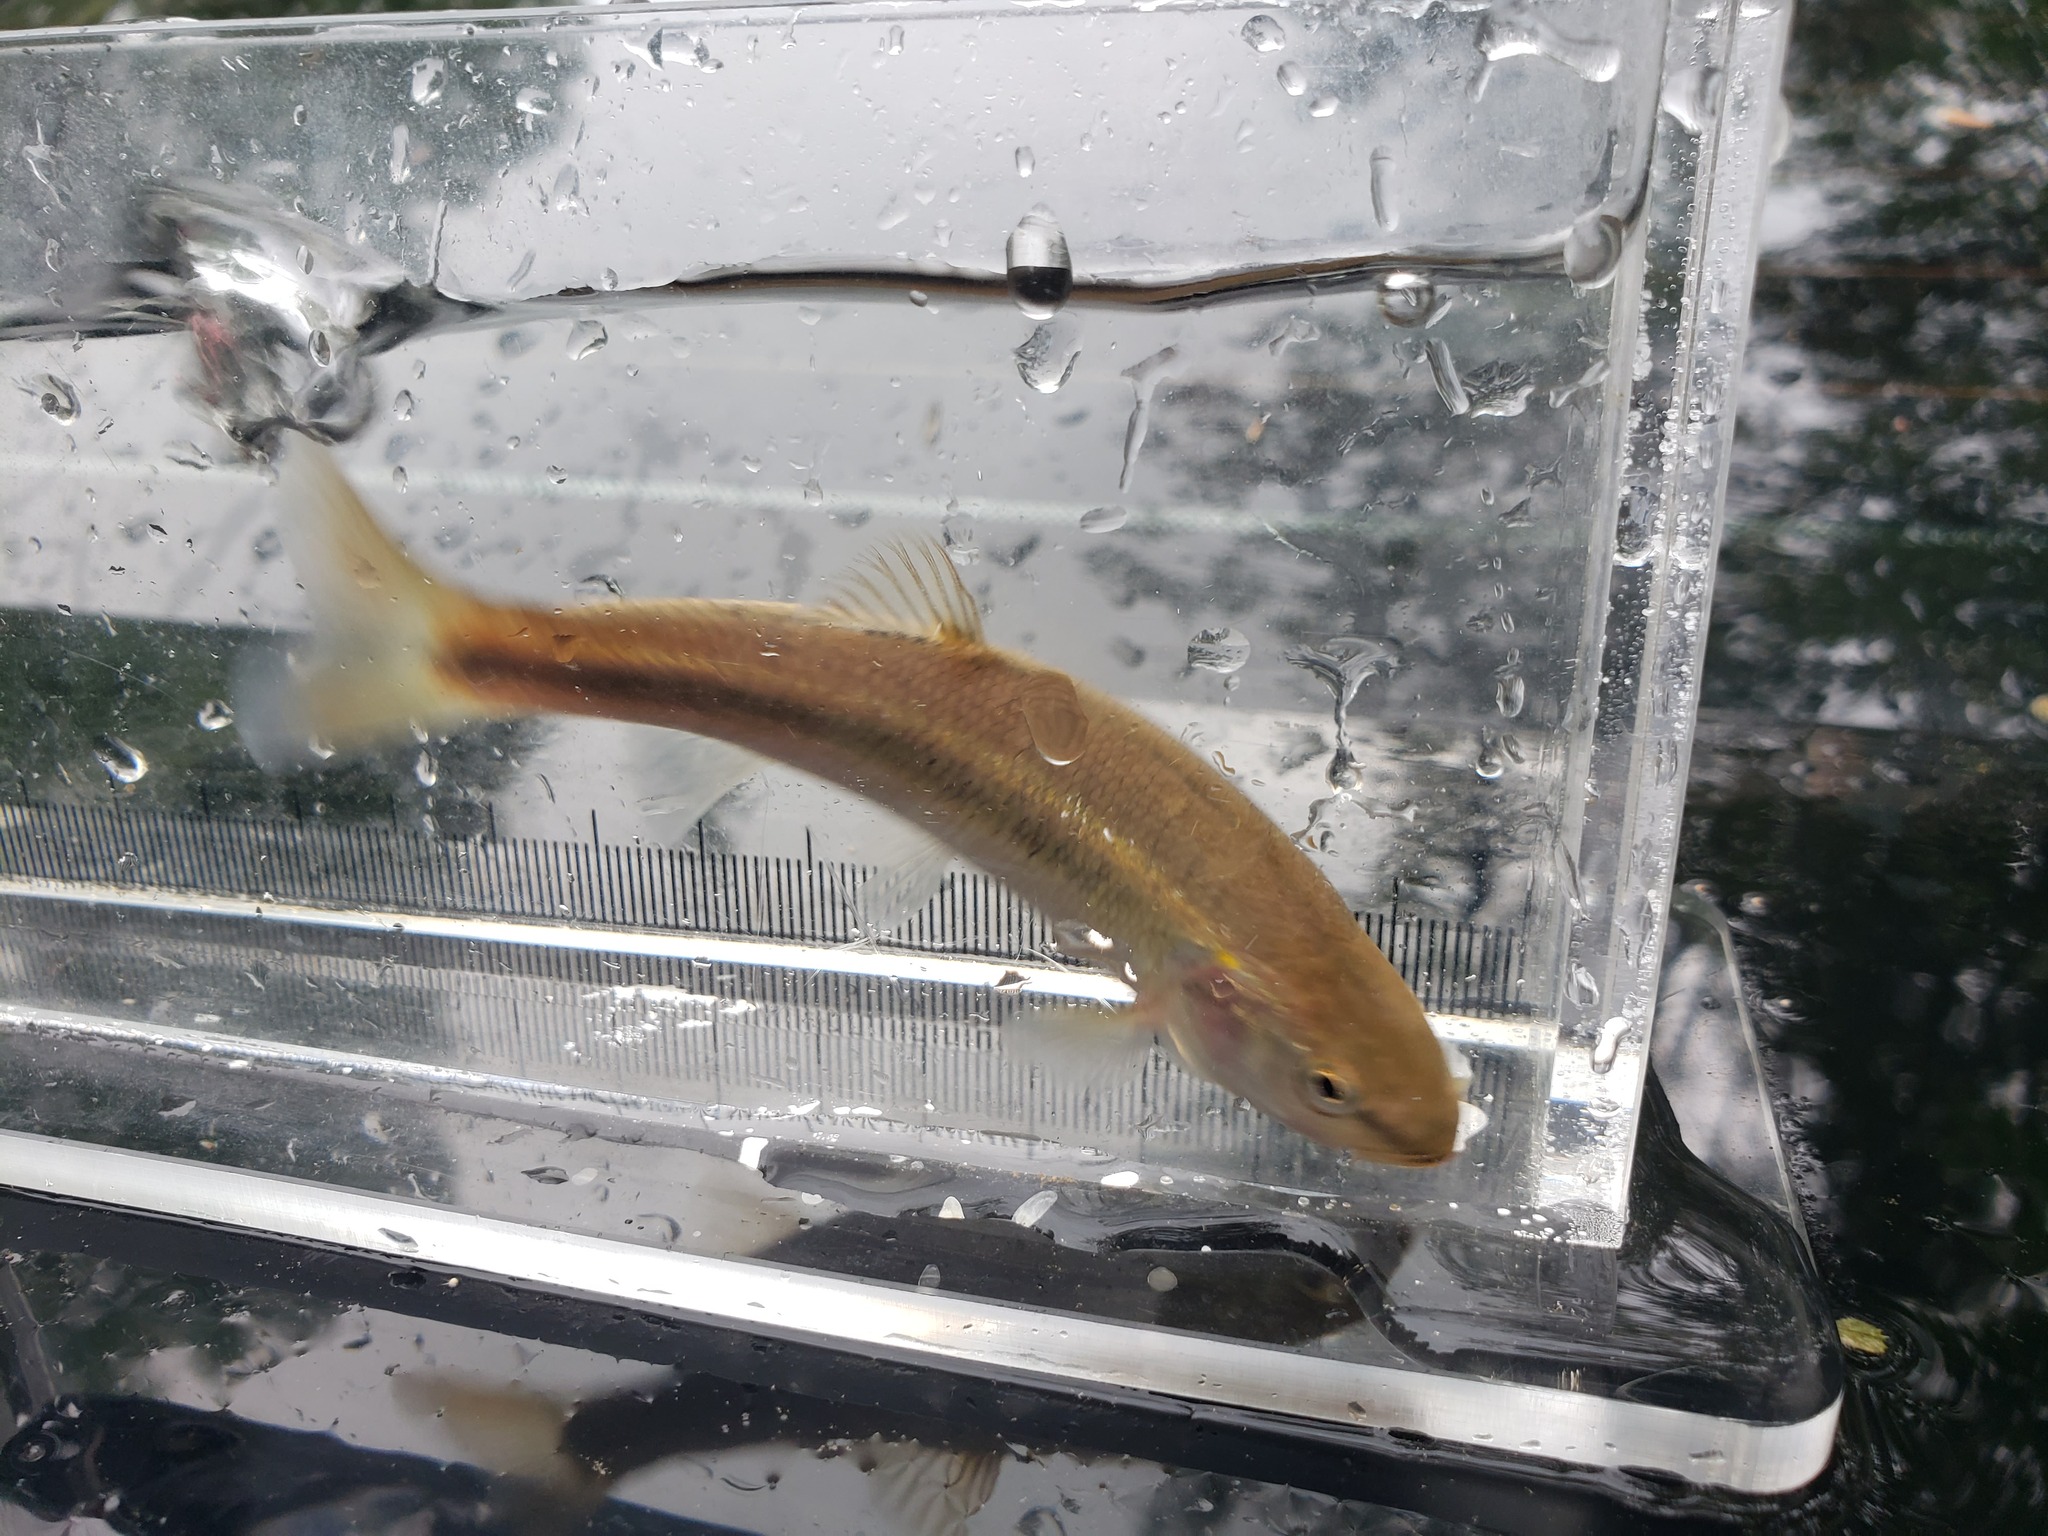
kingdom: Animalia
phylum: Chordata
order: Cypriniformes
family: Cyprinidae
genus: Semotilus
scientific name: Semotilus atromaculatus
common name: Creek chub
